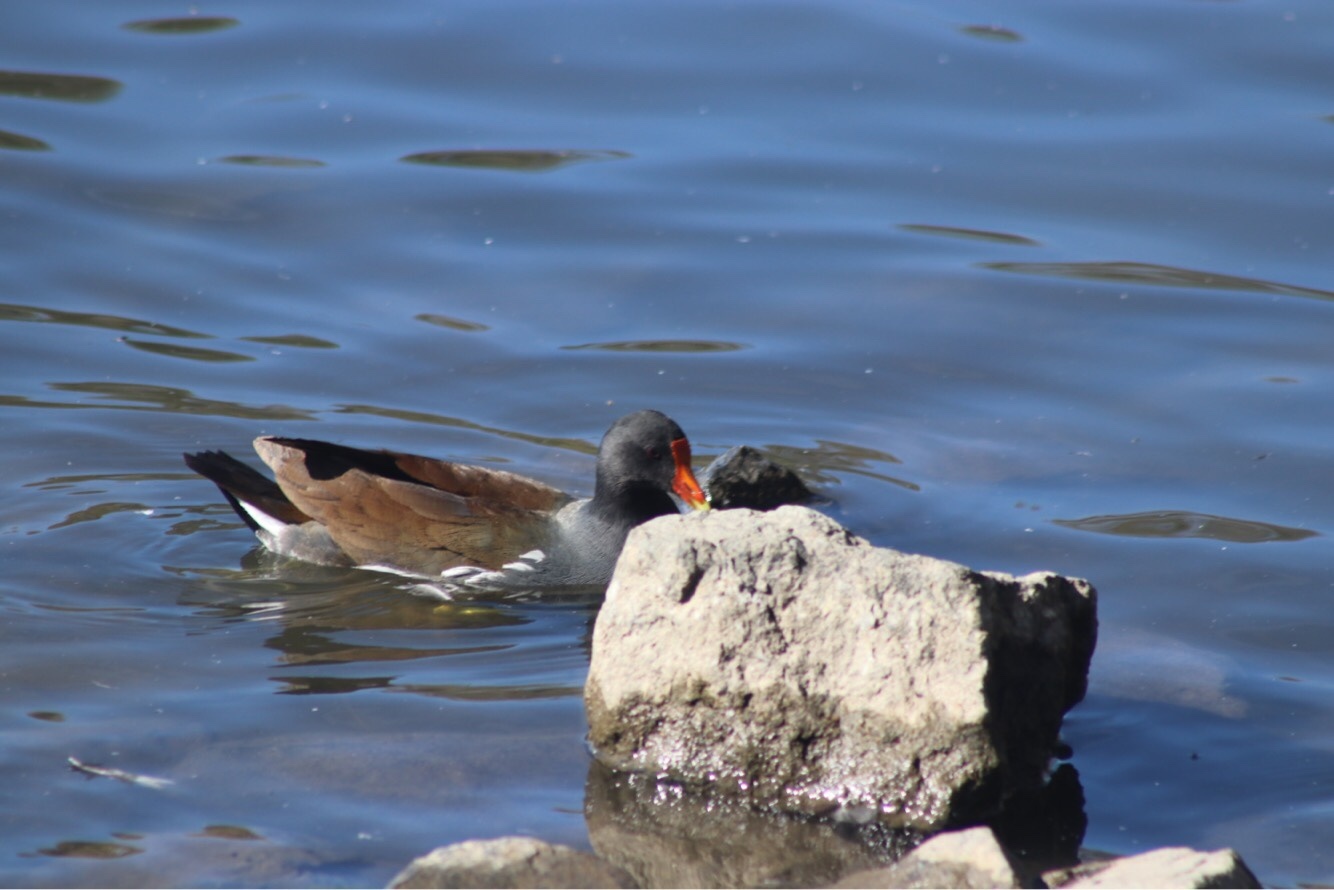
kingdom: Animalia
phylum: Chordata
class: Aves
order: Gruiformes
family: Rallidae
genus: Gallinula
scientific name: Gallinula chloropus
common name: Common moorhen
